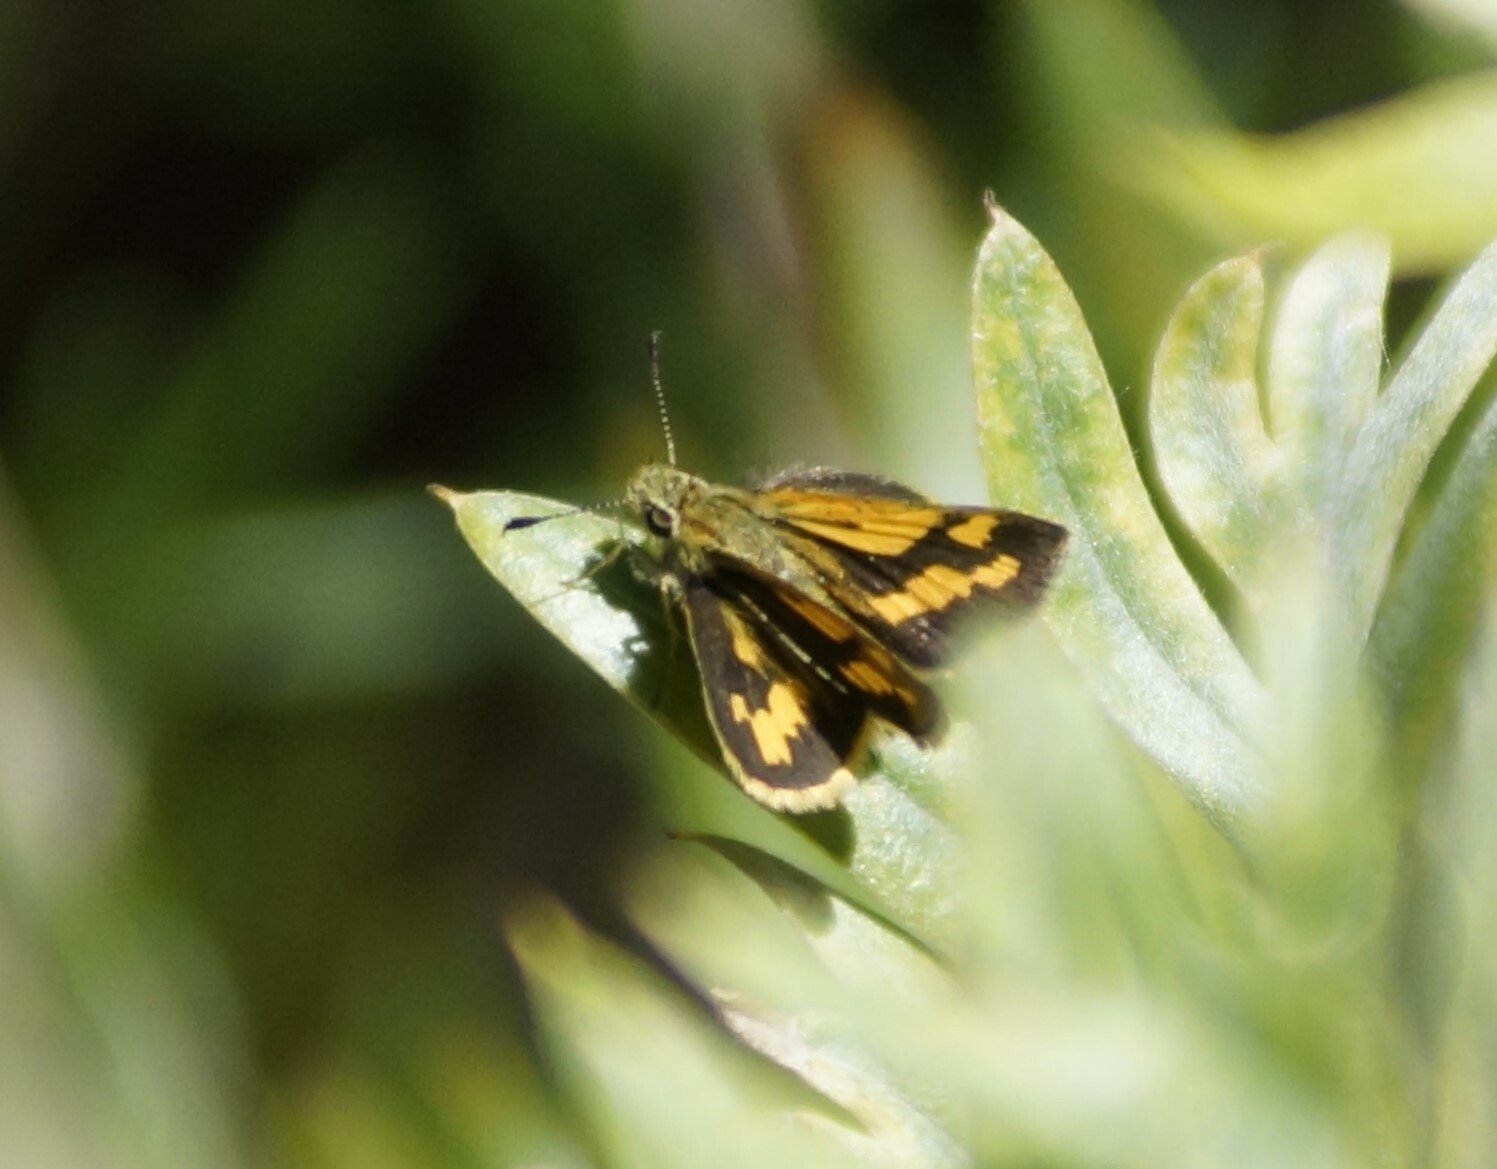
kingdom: Animalia
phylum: Arthropoda
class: Insecta
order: Lepidoptera
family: Hesperiidae
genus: Ocybadistes
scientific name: Ocybadistes walkeri
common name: Yellow-banded dart
